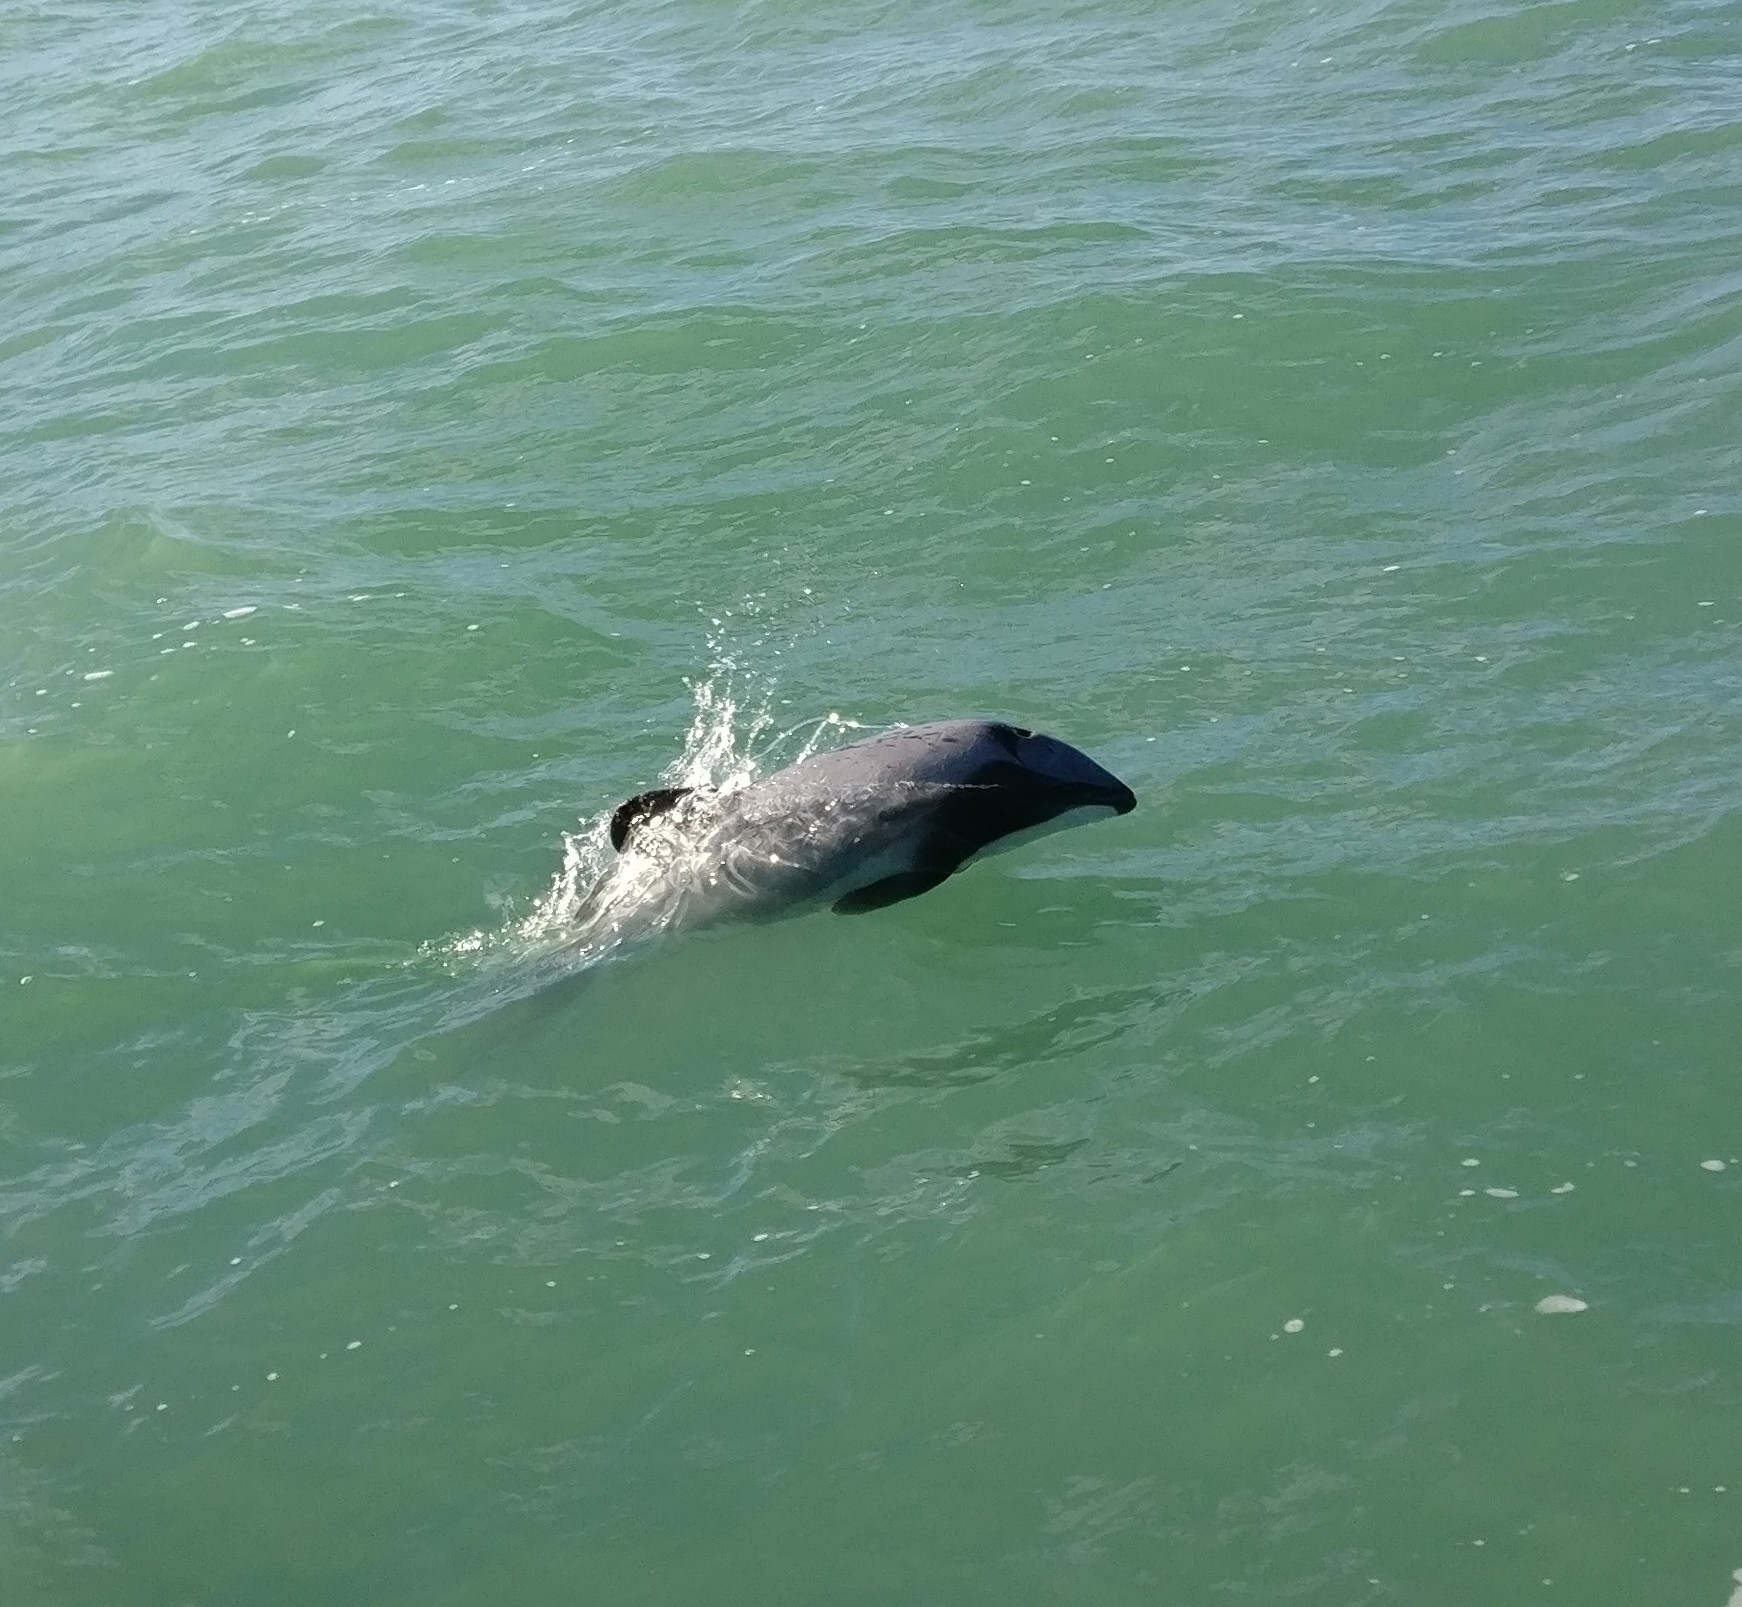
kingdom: Animalia
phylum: Chordata
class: Mammalia
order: Cetacea
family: Delphinidae
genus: Cephalorhynchus
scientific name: Cephalorhynchus hectori
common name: Hector's dolphin
